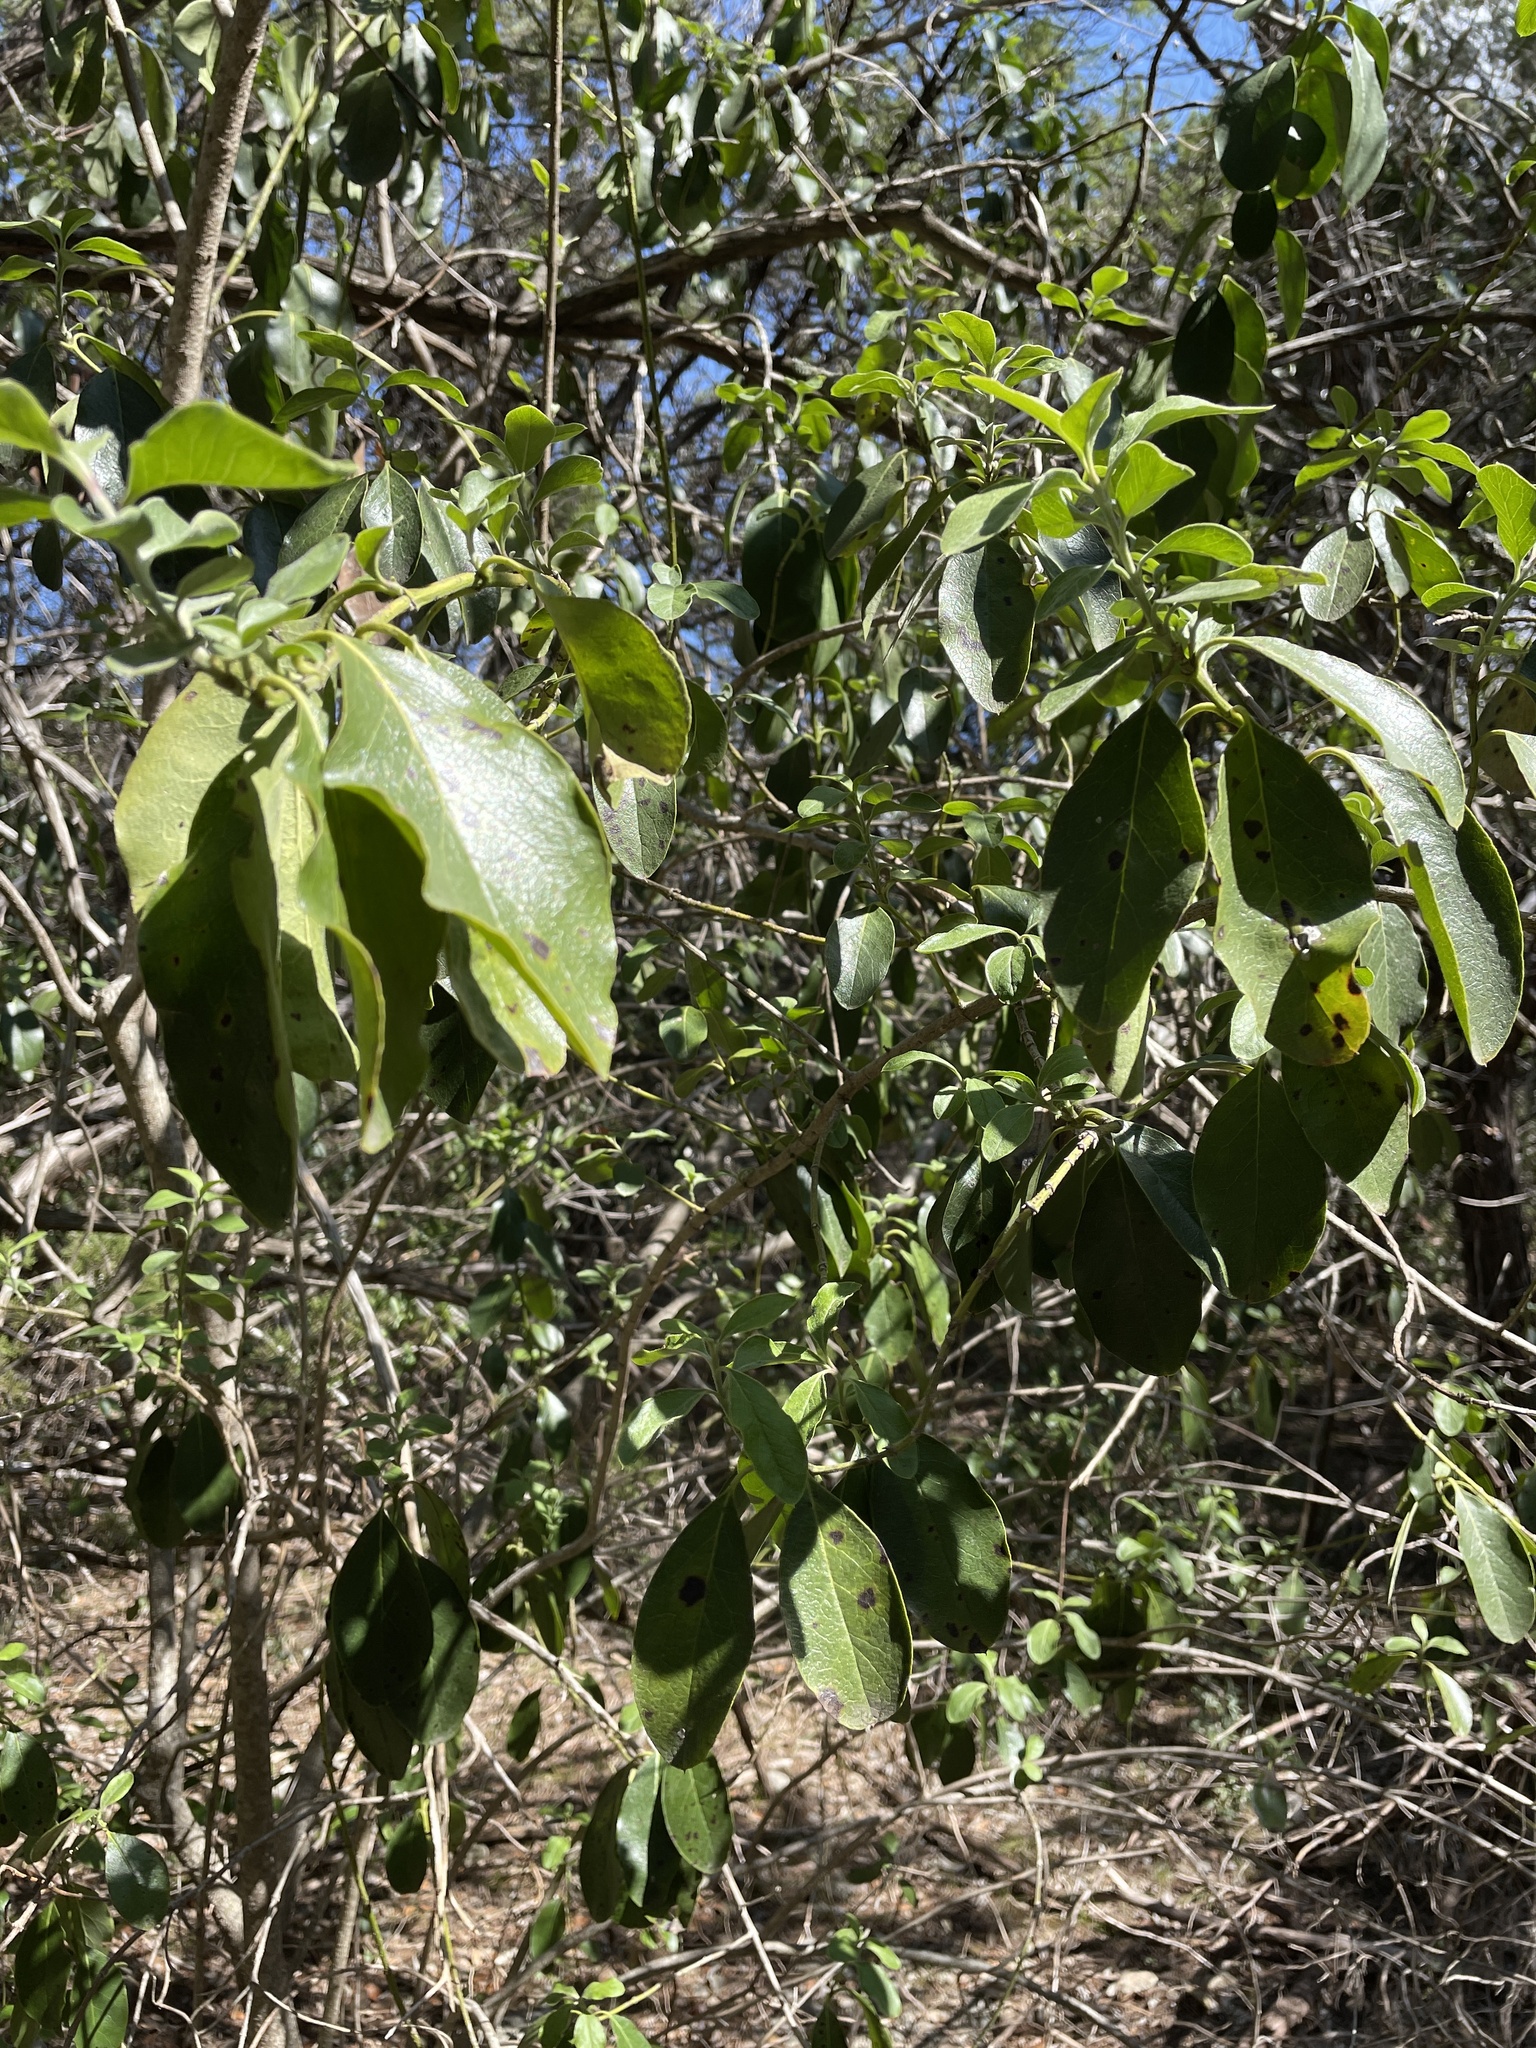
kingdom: Plantae
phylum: Tracheophyta
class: Magnoliopsida
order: Garryales
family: Garryaceae
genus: Garrya
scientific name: Garrya lindheimeri
